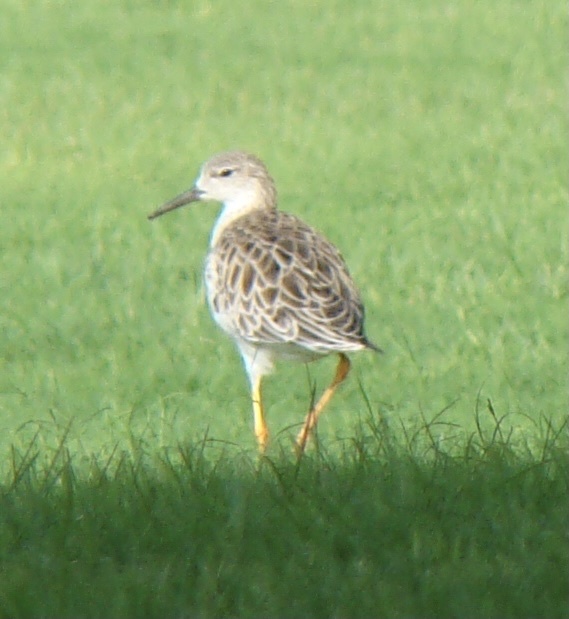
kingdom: Animalia
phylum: Chordata
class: Aves
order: Charadriiformes
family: Scolopacidae
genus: Calidris
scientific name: Calidris pugnax
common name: Ruff
